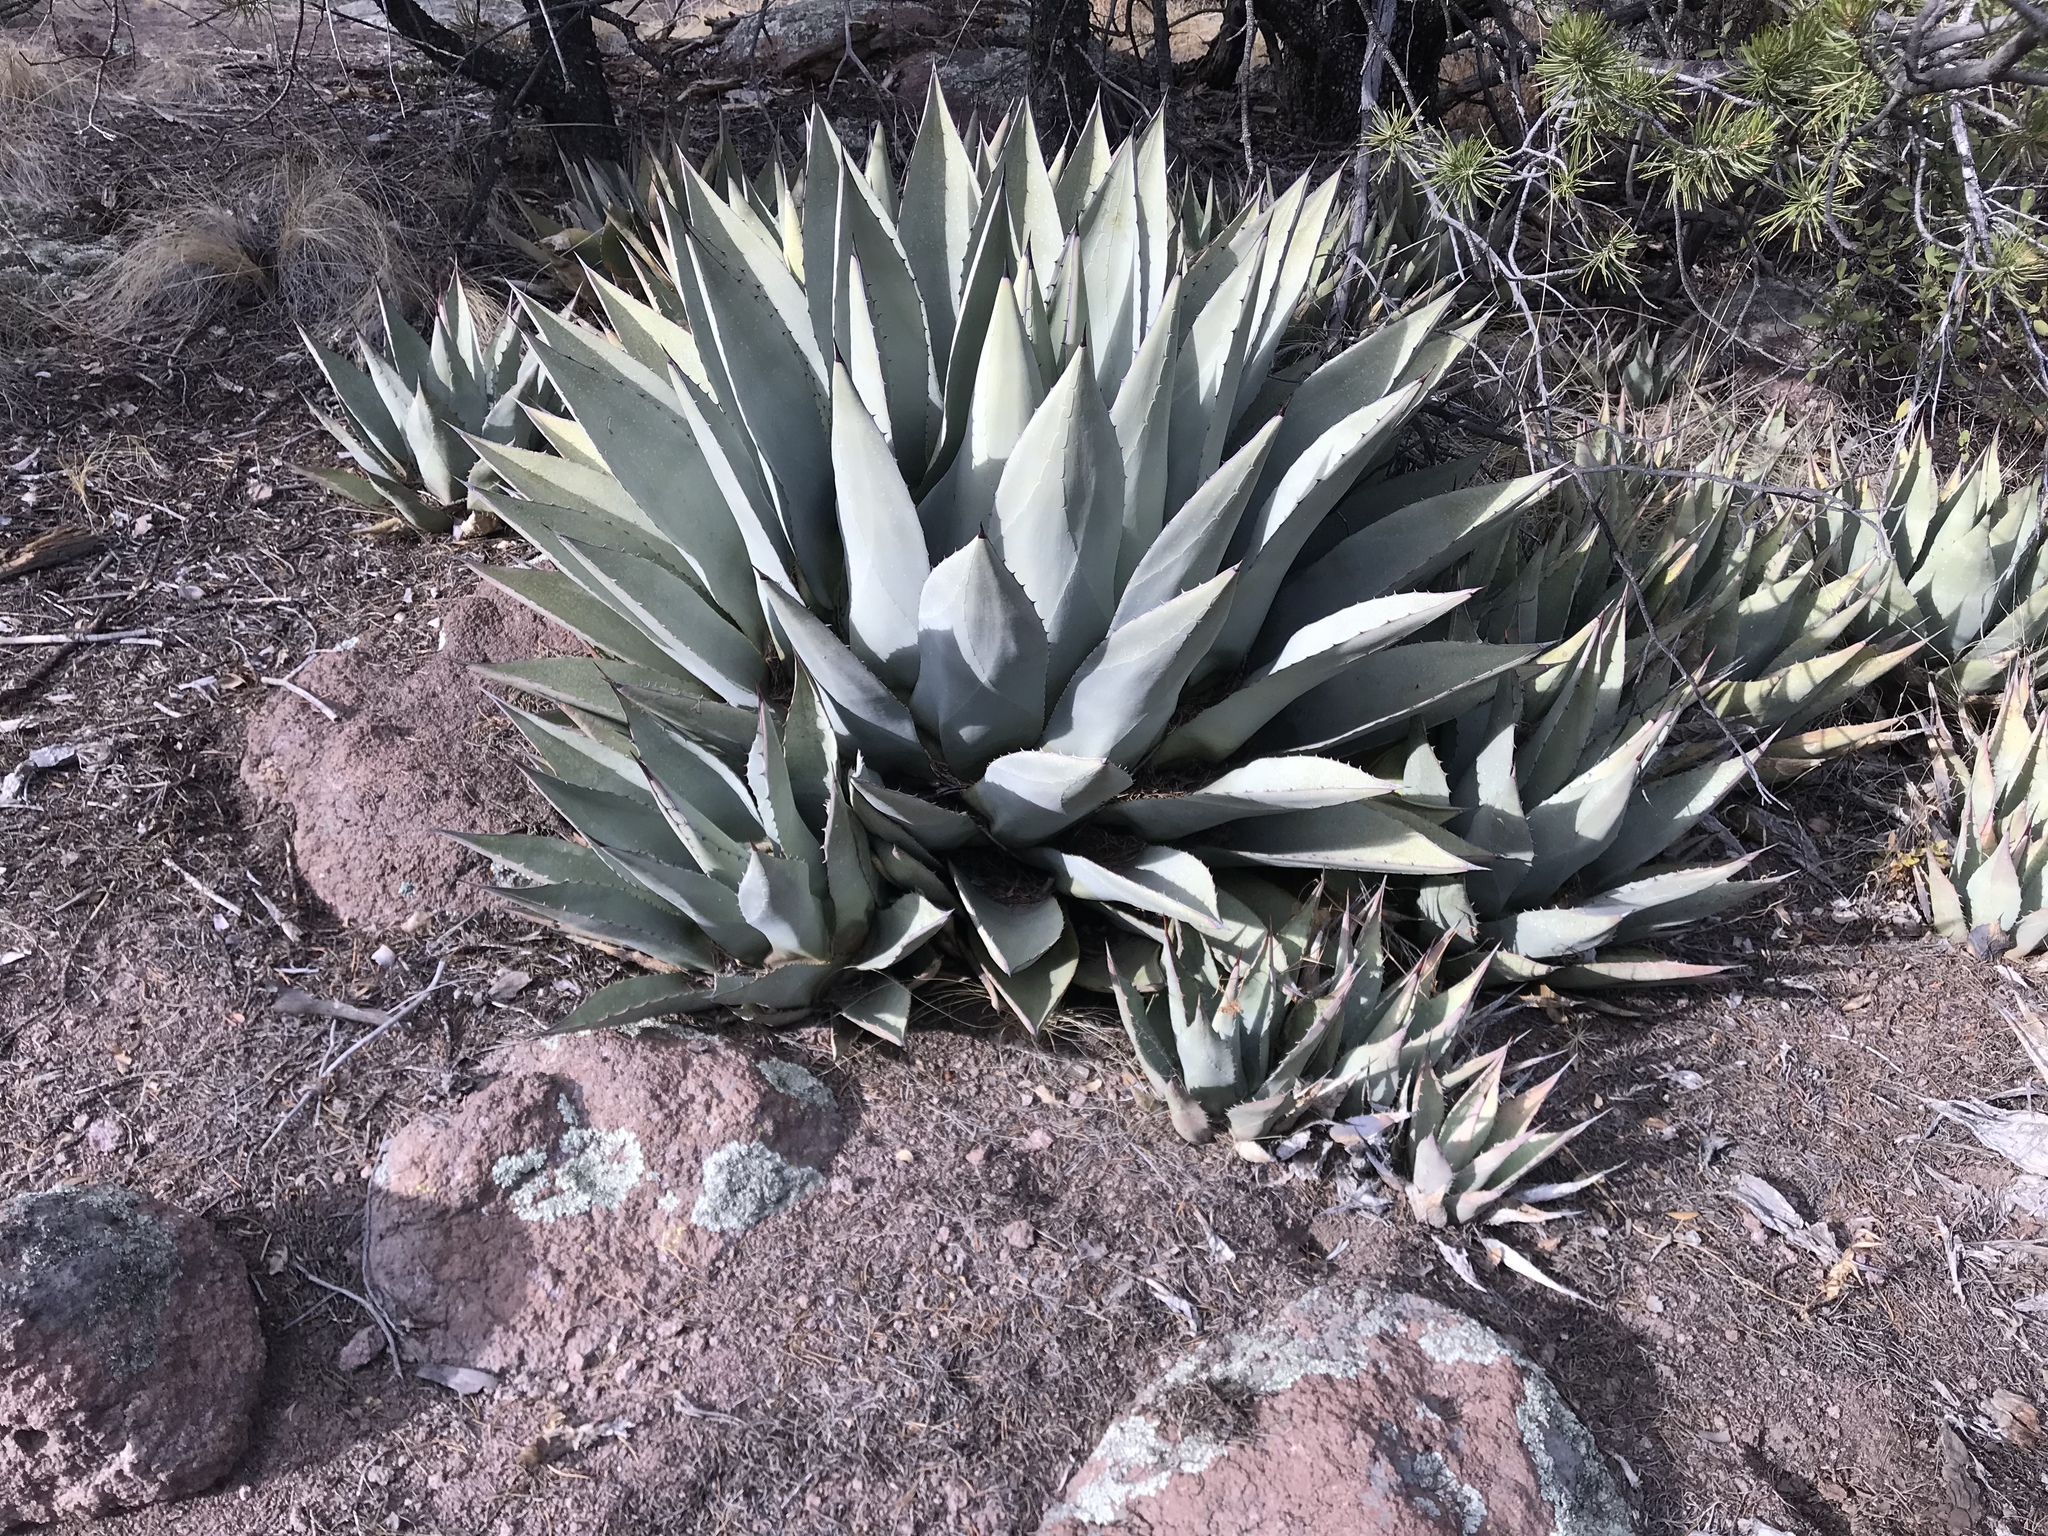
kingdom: Plantae
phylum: Tracheophyta
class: Liliopsida
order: Asparagales
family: Asparagaceae
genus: Agave
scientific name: Agave parryi
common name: Parry's agave
